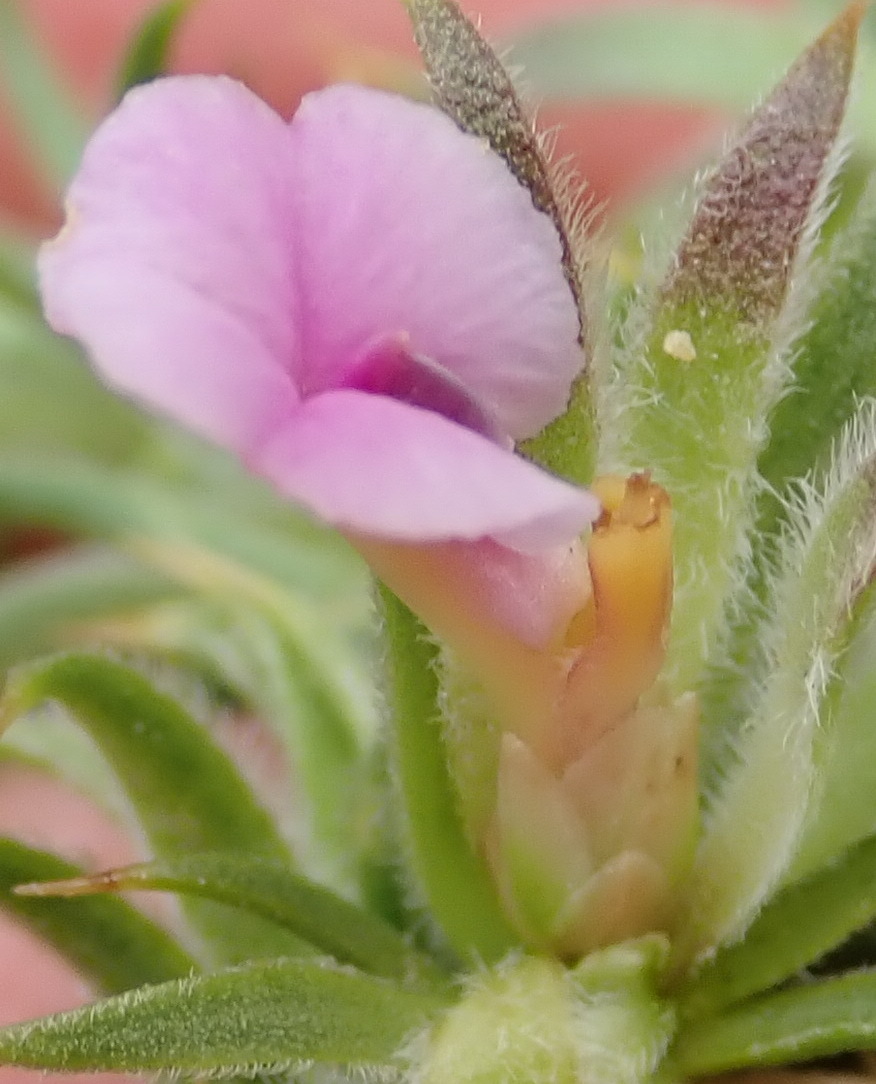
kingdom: Plantae
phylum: Tracheophyta
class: Magnoliopsida
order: Fabales
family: Polygalaceae
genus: Muraltia
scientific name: Muraltia squarrosa
